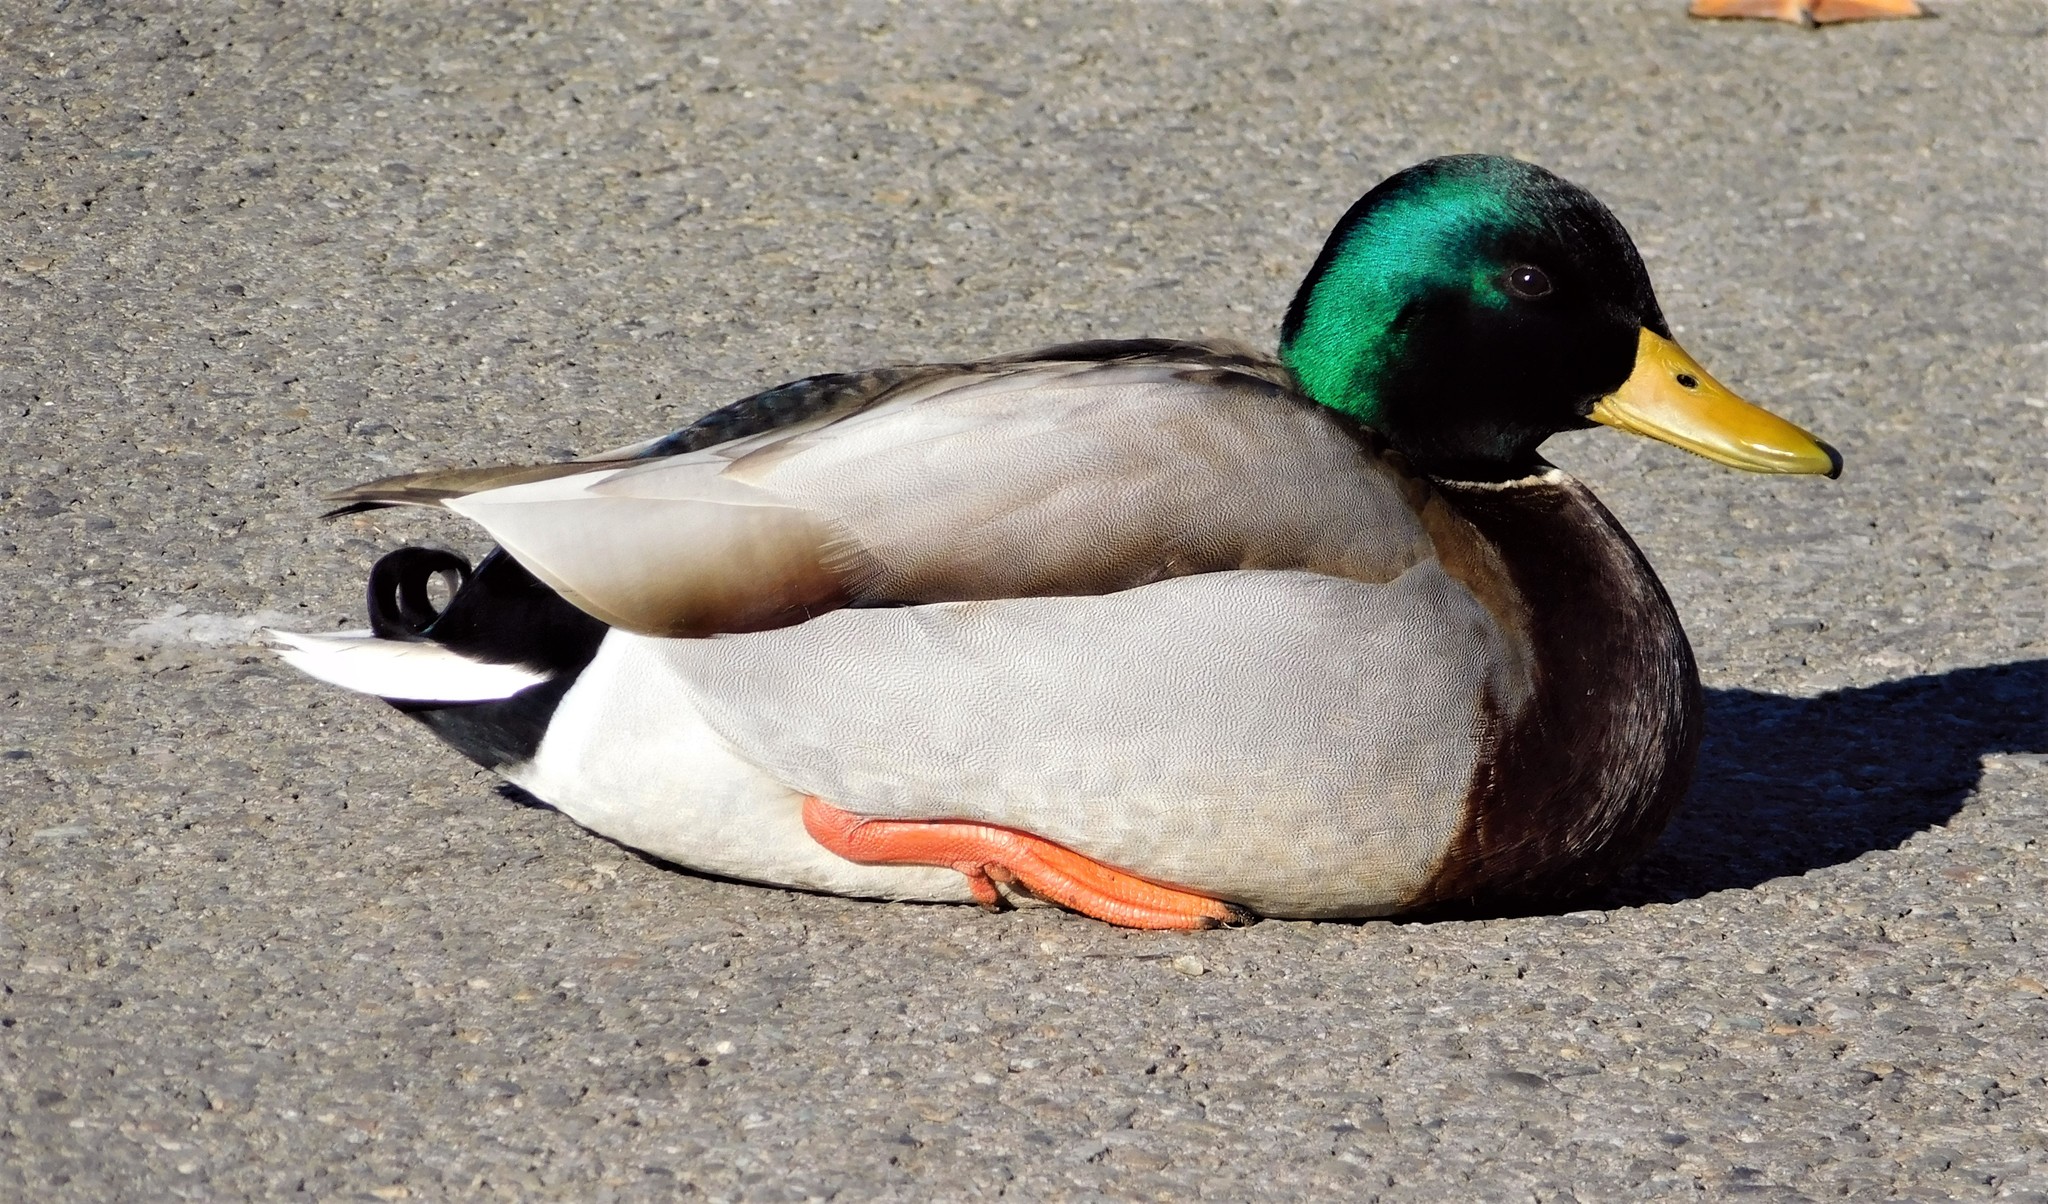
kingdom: Animalia
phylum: Chordata
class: Aves
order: Anseriformes
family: Anatidae
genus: Anas
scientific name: Anas platyrhynchos
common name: Mallard
